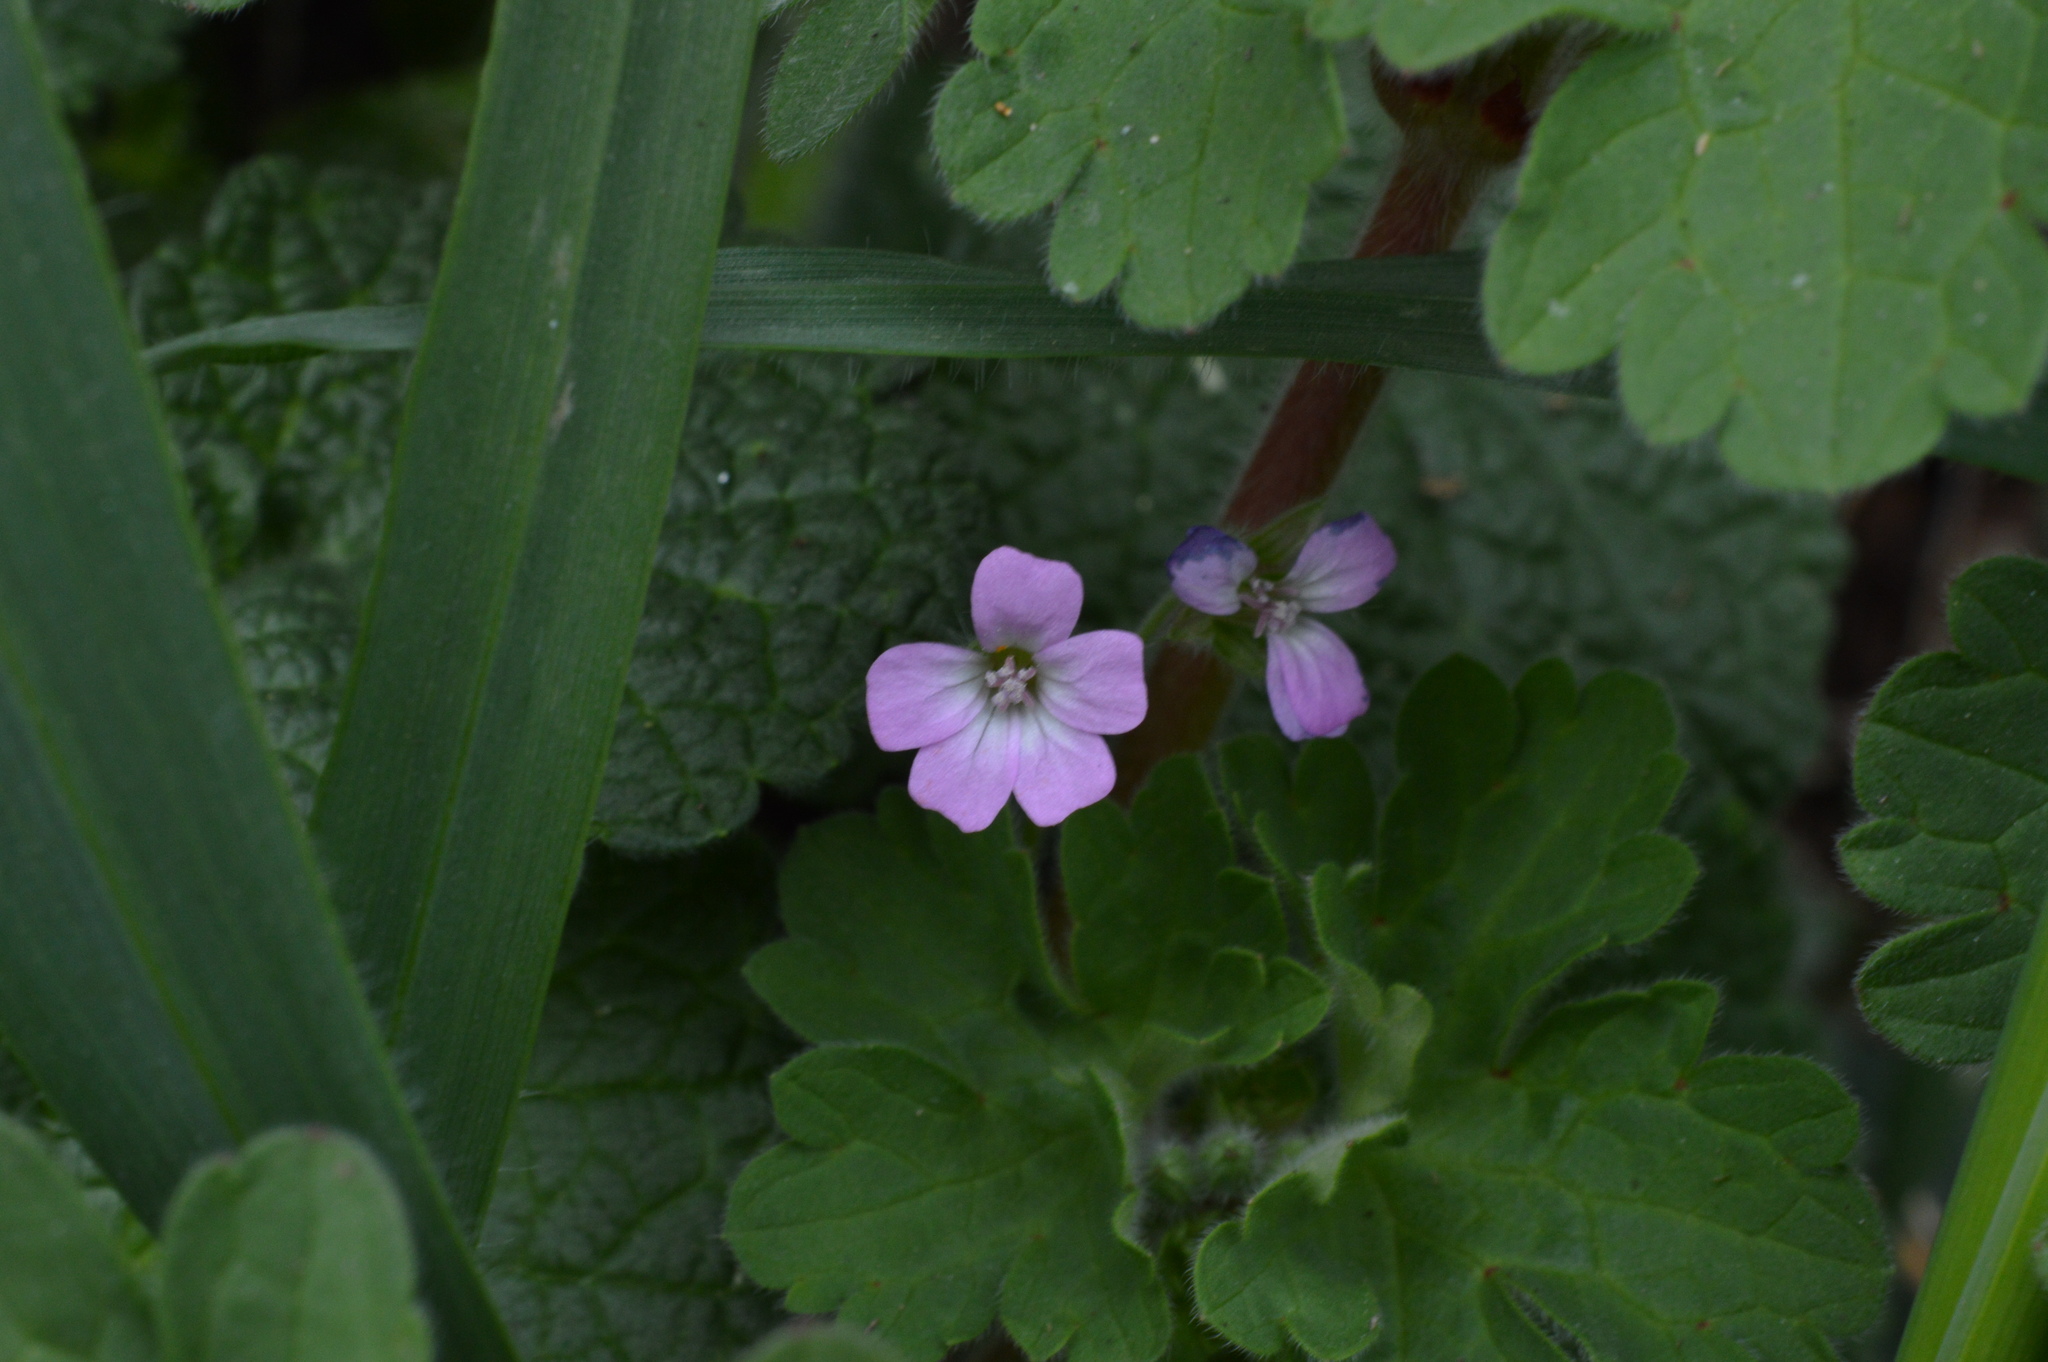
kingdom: Plantae
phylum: Tracheophyta
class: Magnoliopsida
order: Geraniales
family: Geraniaceae
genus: Geranium
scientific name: Geranium rotundifolium
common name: Round-leaved crane's-bill
